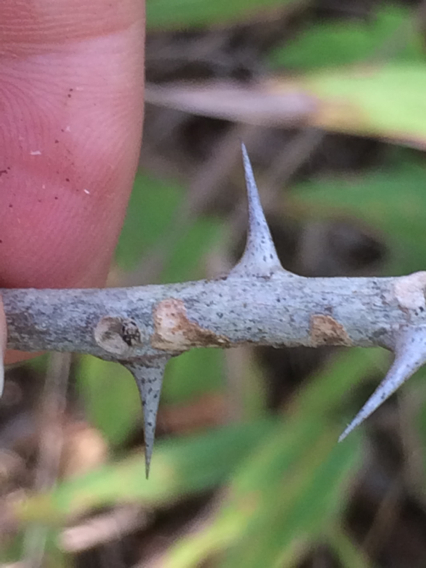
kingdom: Plantae
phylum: Tracheophyta
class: Magnoliopsida
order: Sapindales
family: Rutaceae
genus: Zanthoxylum
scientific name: Zanthoxylum clava-herculis
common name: Hercules'-club
